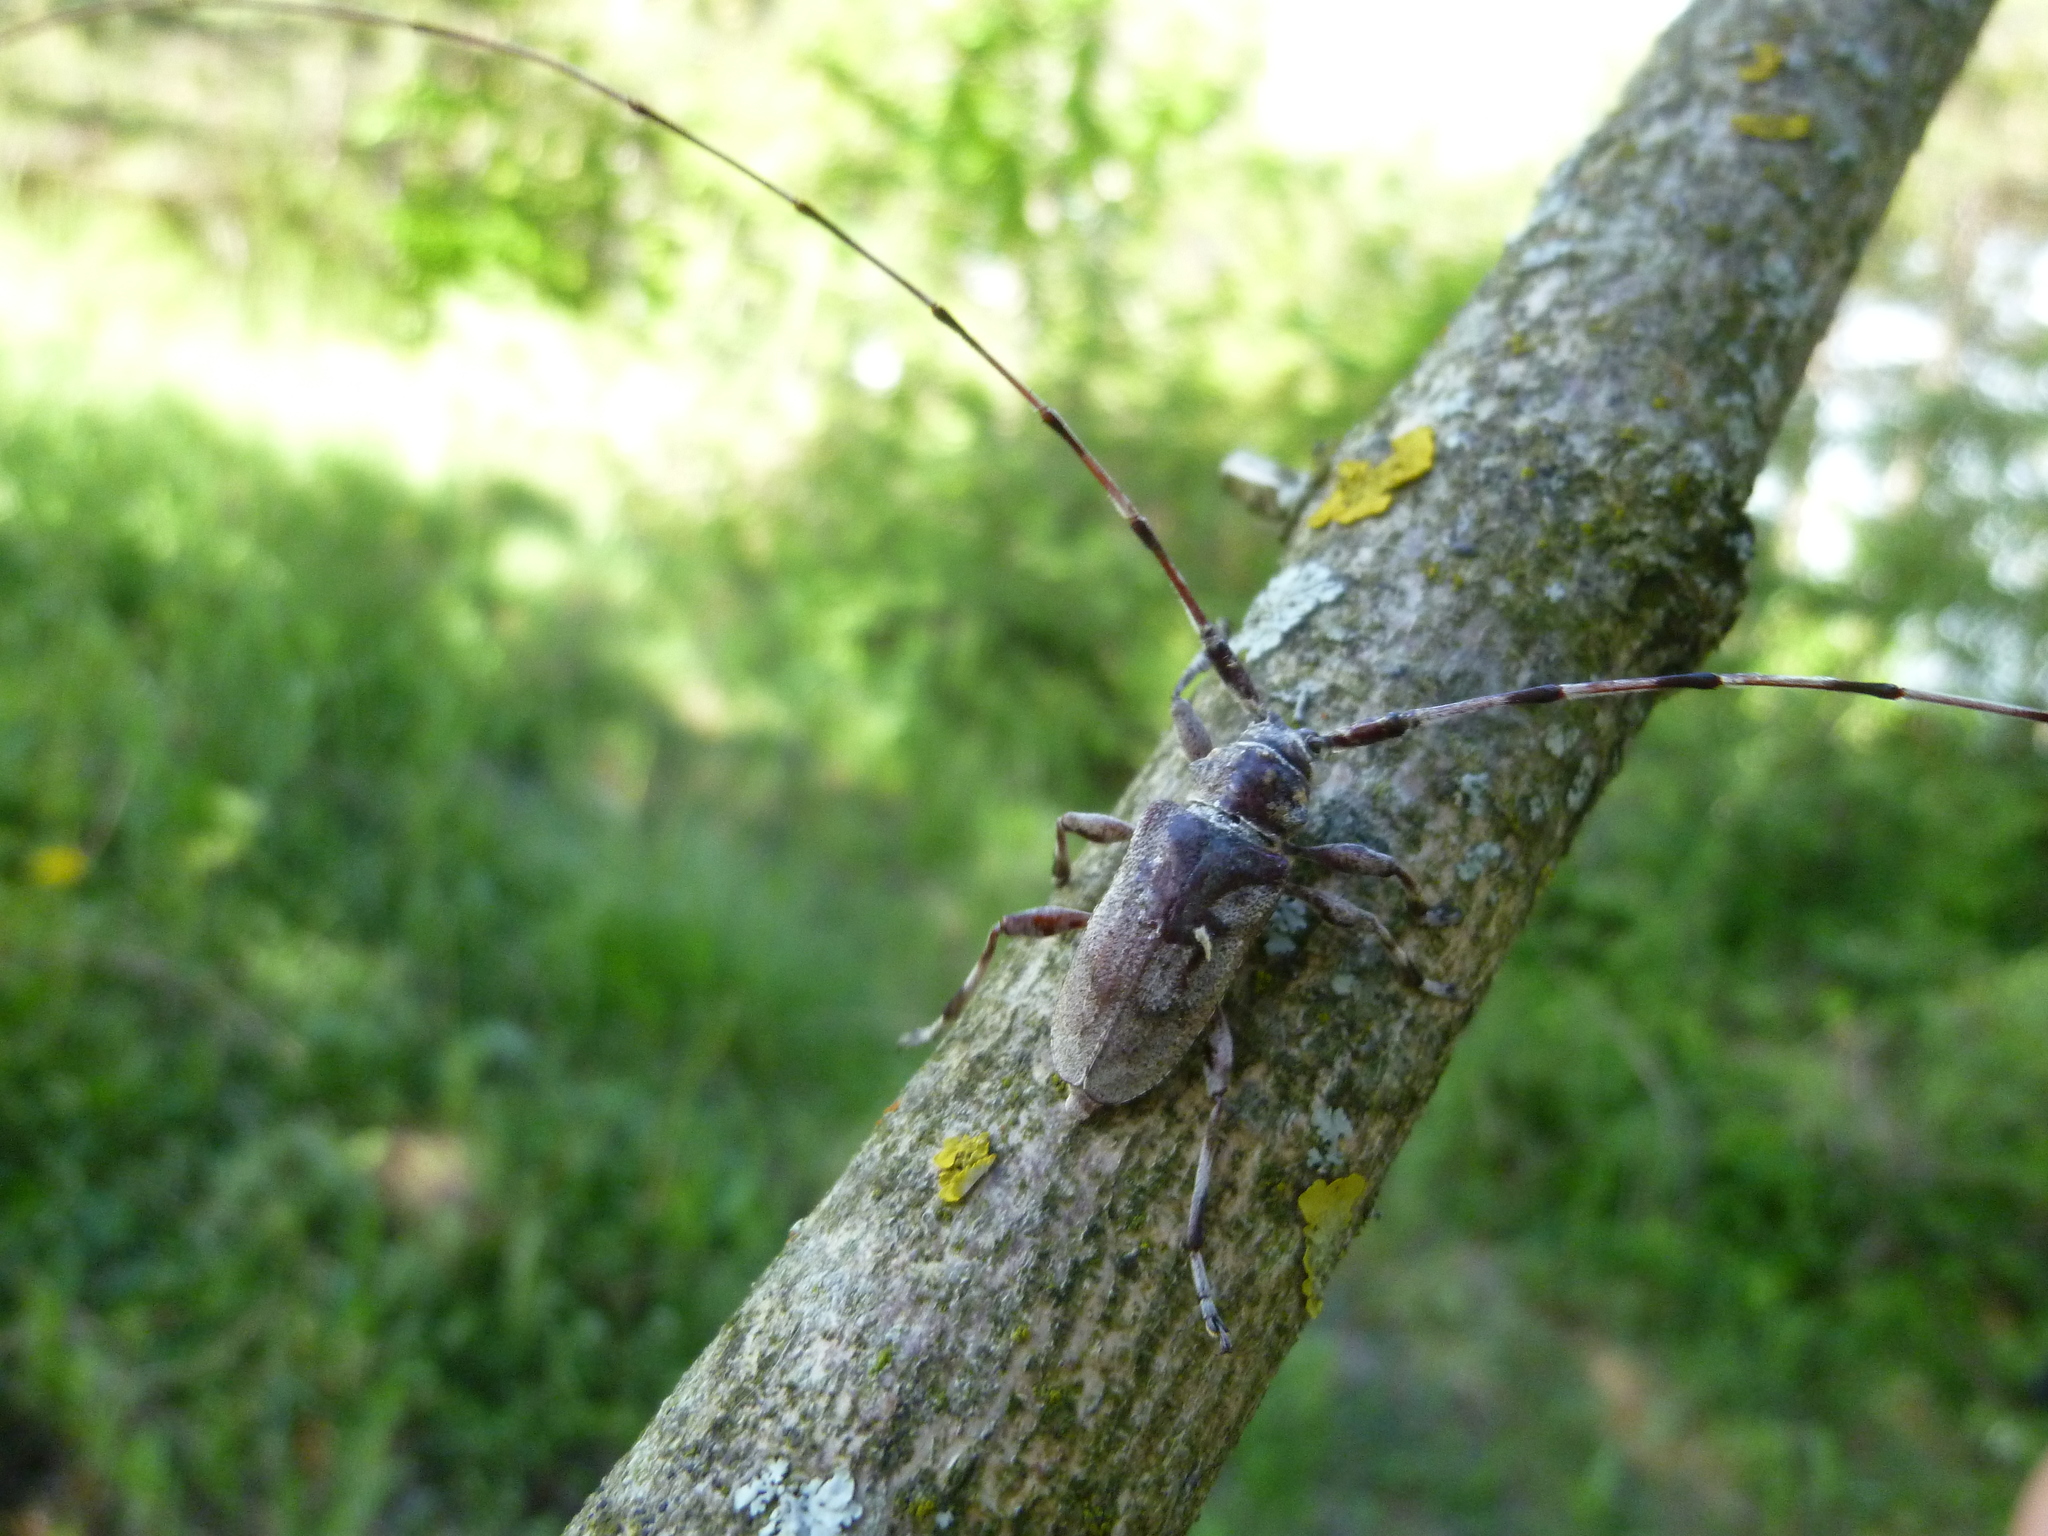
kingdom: Animalia
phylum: Arthropoda
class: Insecta
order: Coleoptera
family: Cerambycidae
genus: Acanthocinus
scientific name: Acanthocinus aedilis
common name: Timberman beetle
